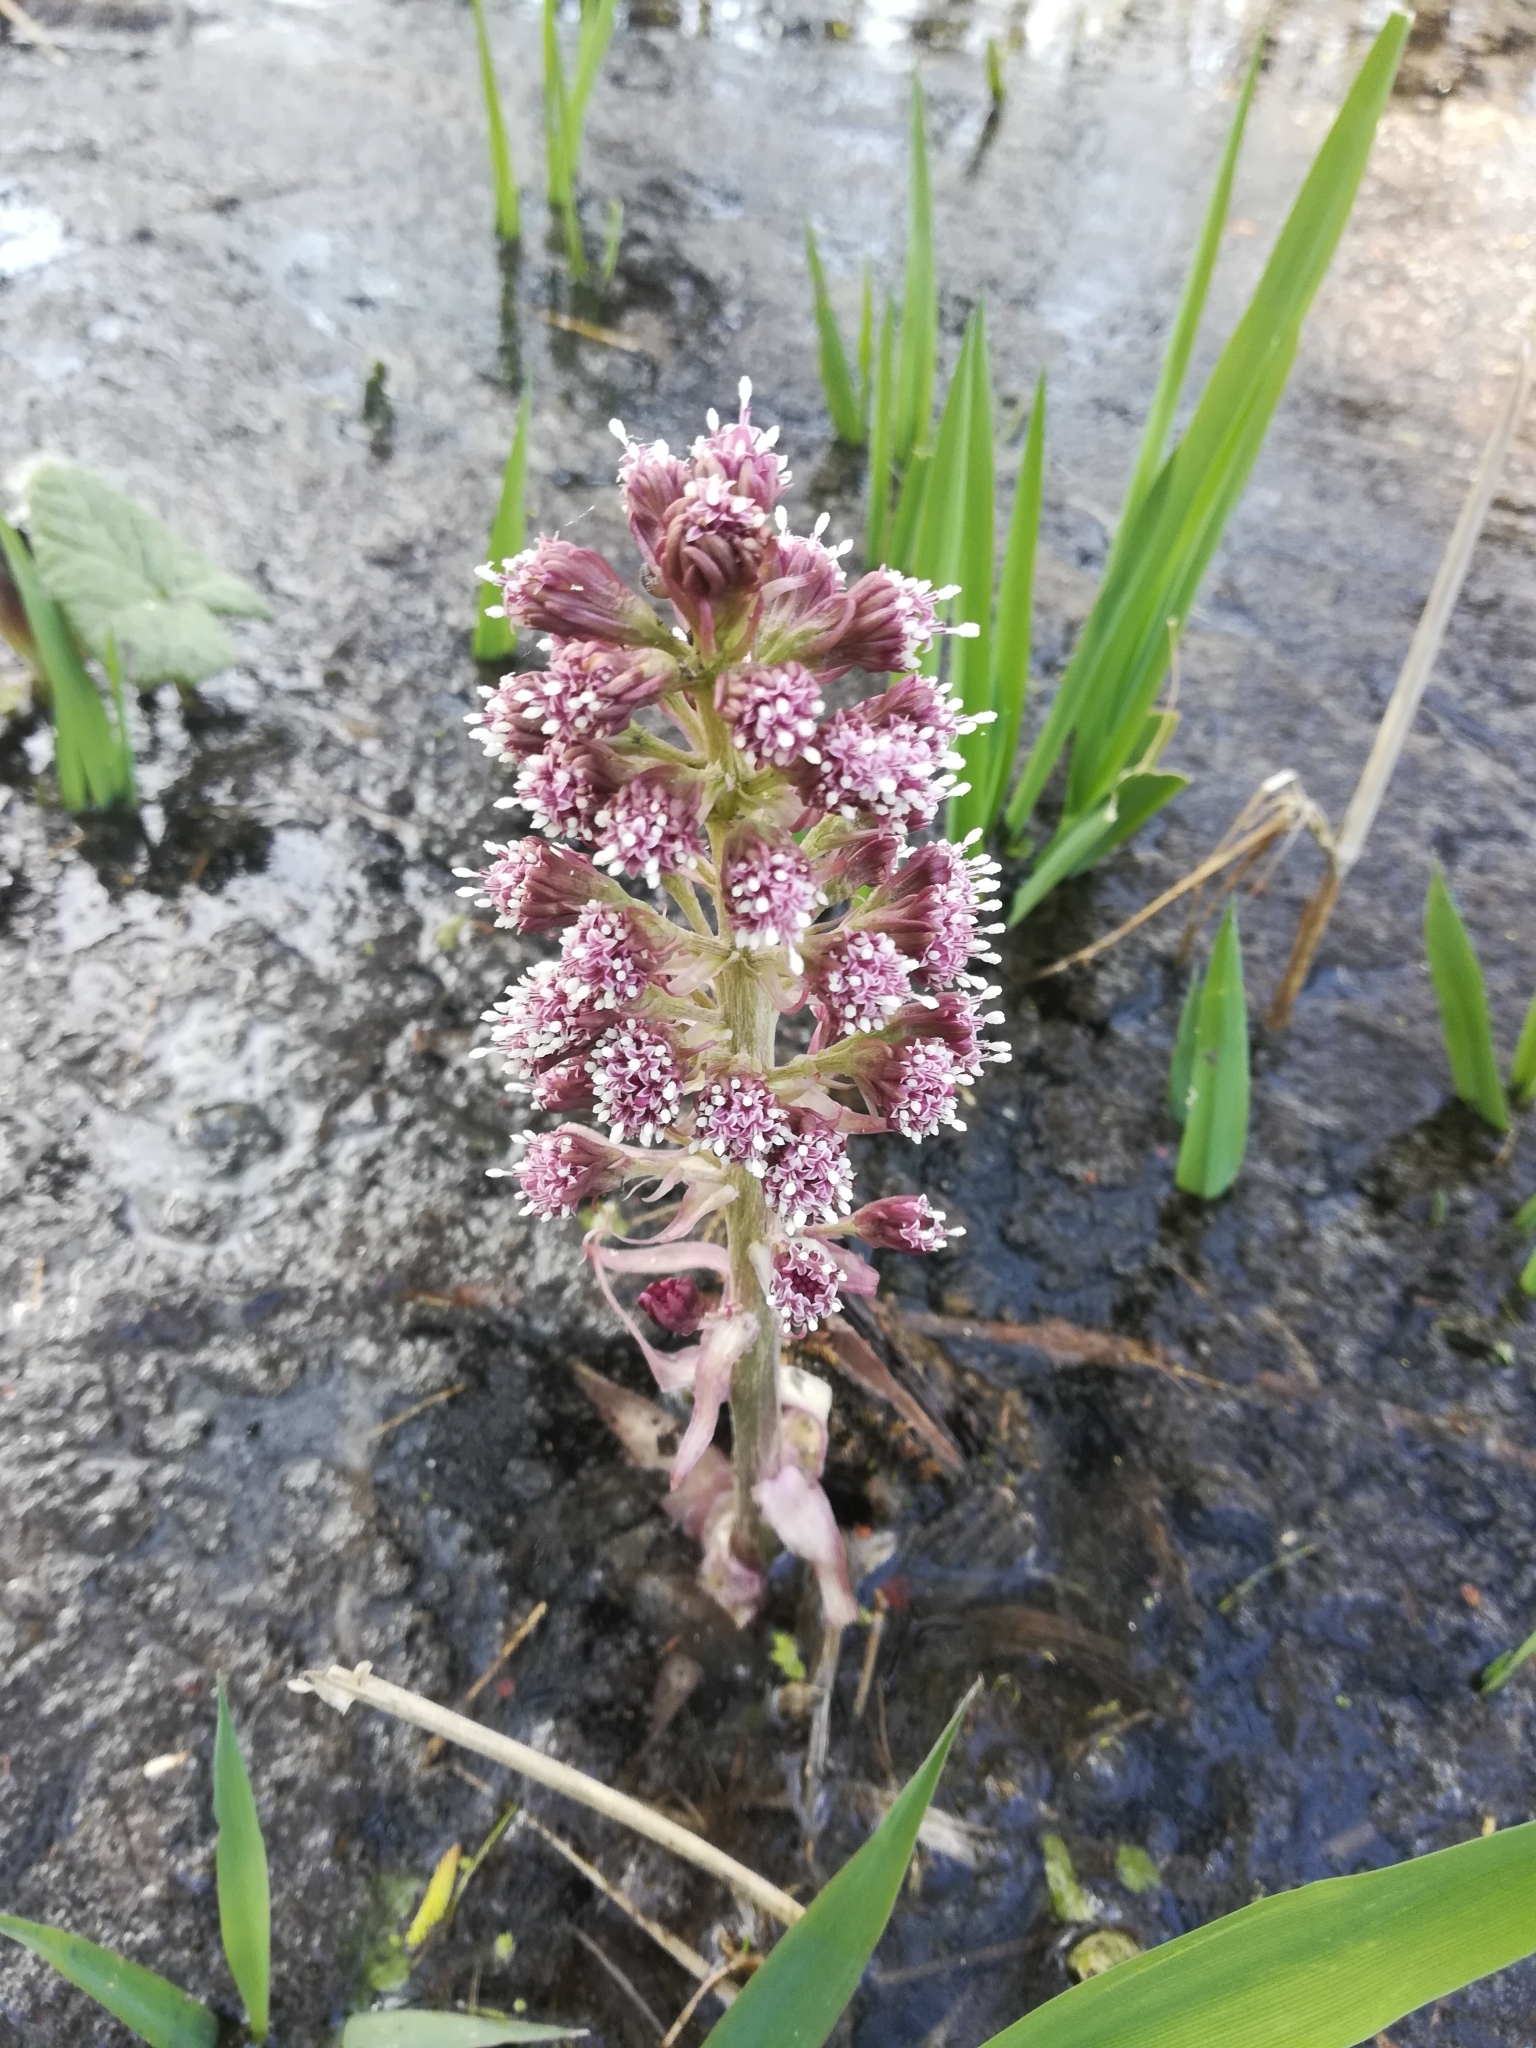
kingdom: Plantae
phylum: Tracheophyta
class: Magnoliopsida
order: Asterales
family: Asteraceae
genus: Petasites
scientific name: Petasites hybridus
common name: Butterbur
